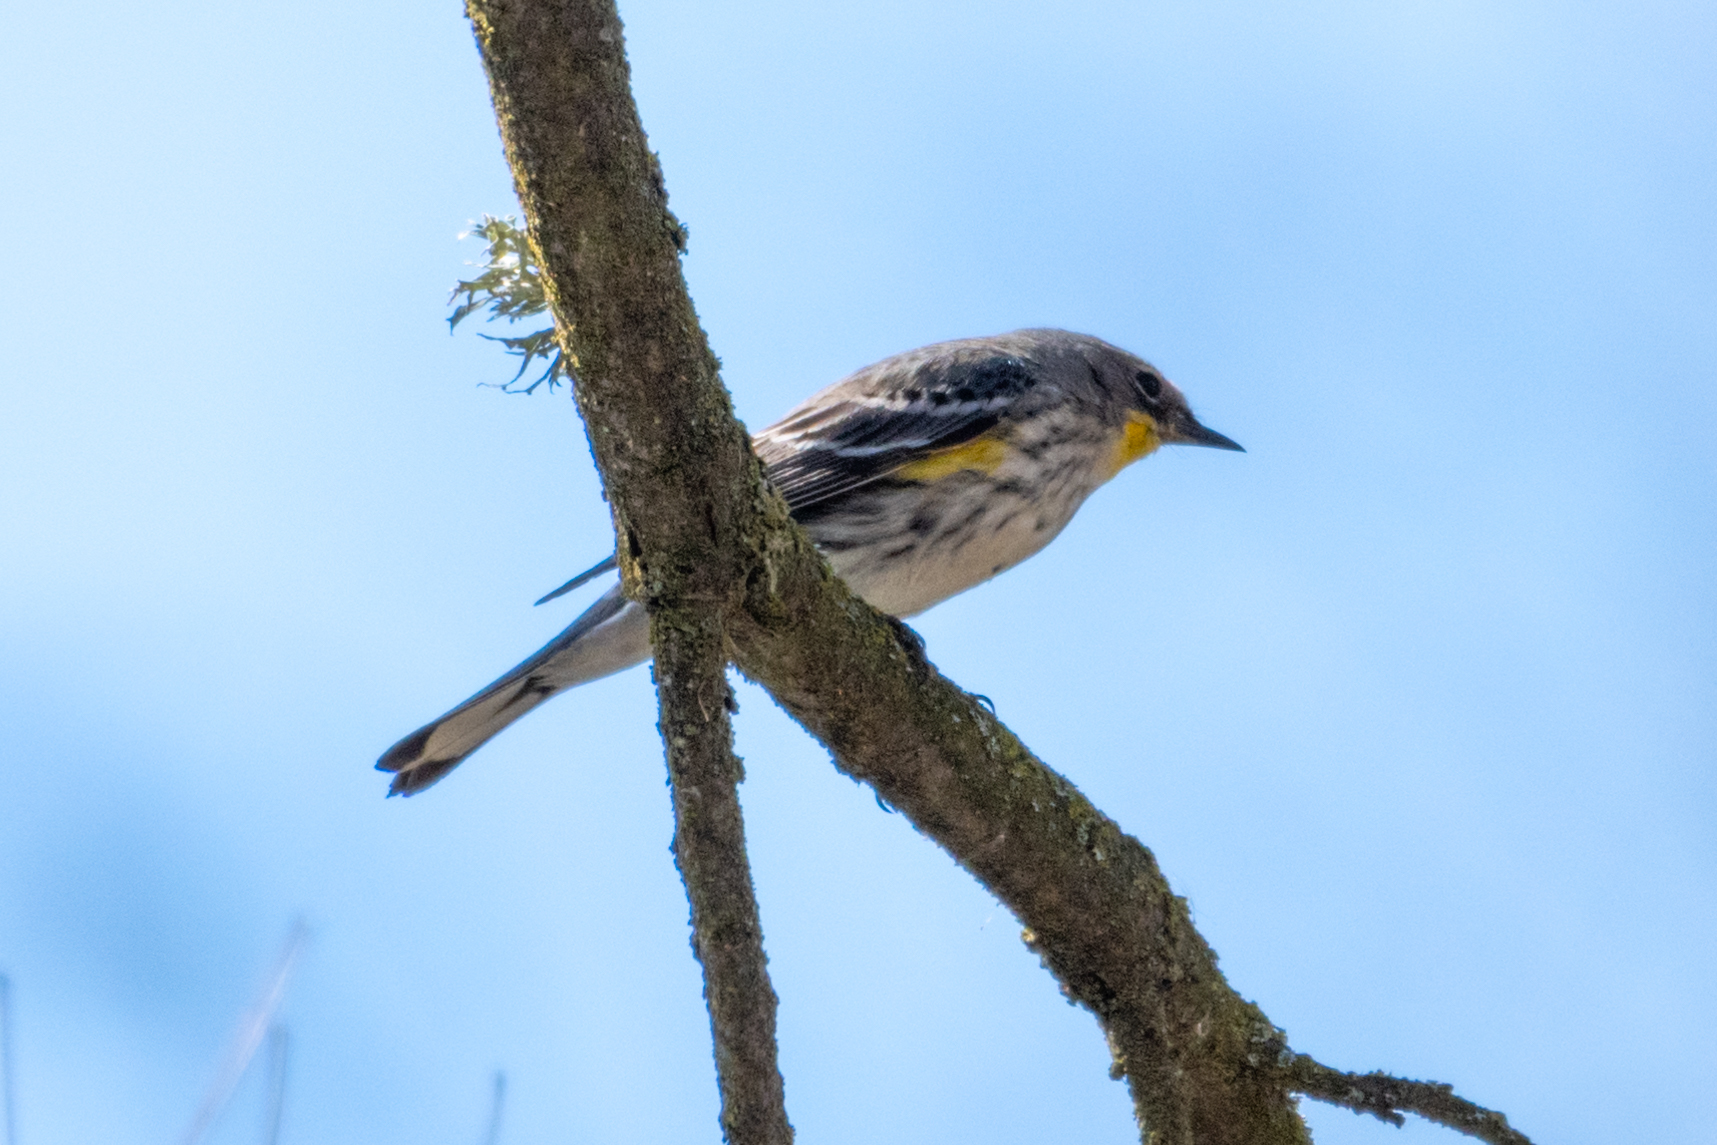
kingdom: Animalia
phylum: Chordata
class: Aves
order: Passeriformes
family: Parulidae
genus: Setophaga
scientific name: Setophaga coronata
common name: Myrtle warbler
